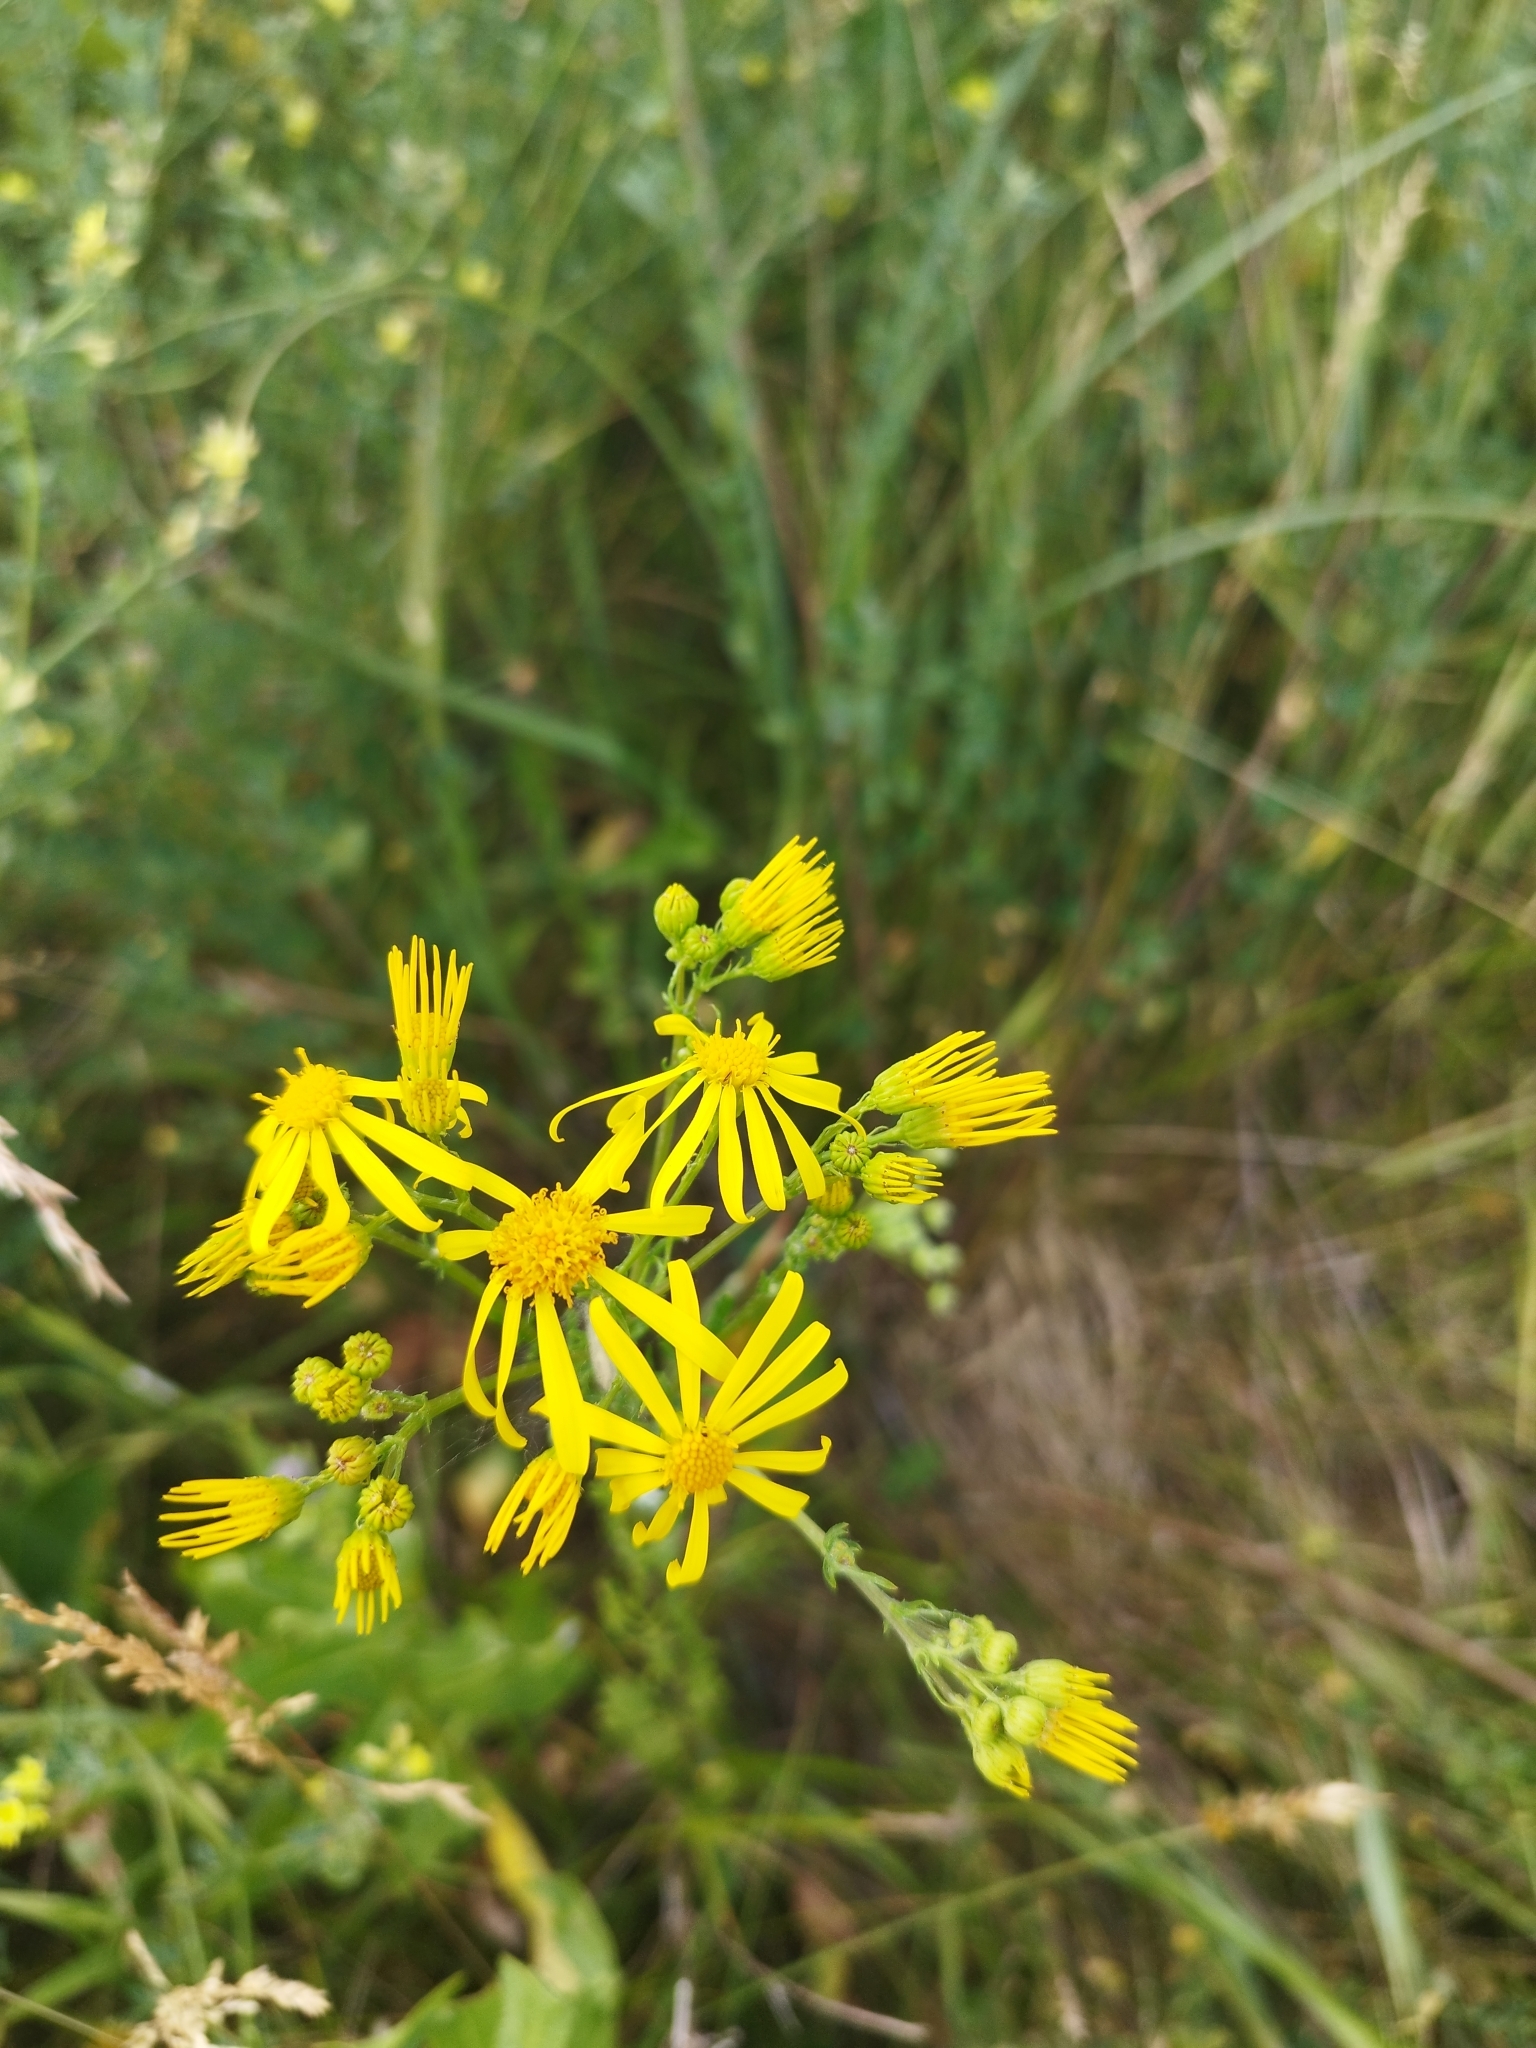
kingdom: Plantae
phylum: Tracheophyta
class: Magnoliopsida
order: Asterales
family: Asteraceae
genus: Jacobaea
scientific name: Jacobaea vulgaris
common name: Stinking willie
